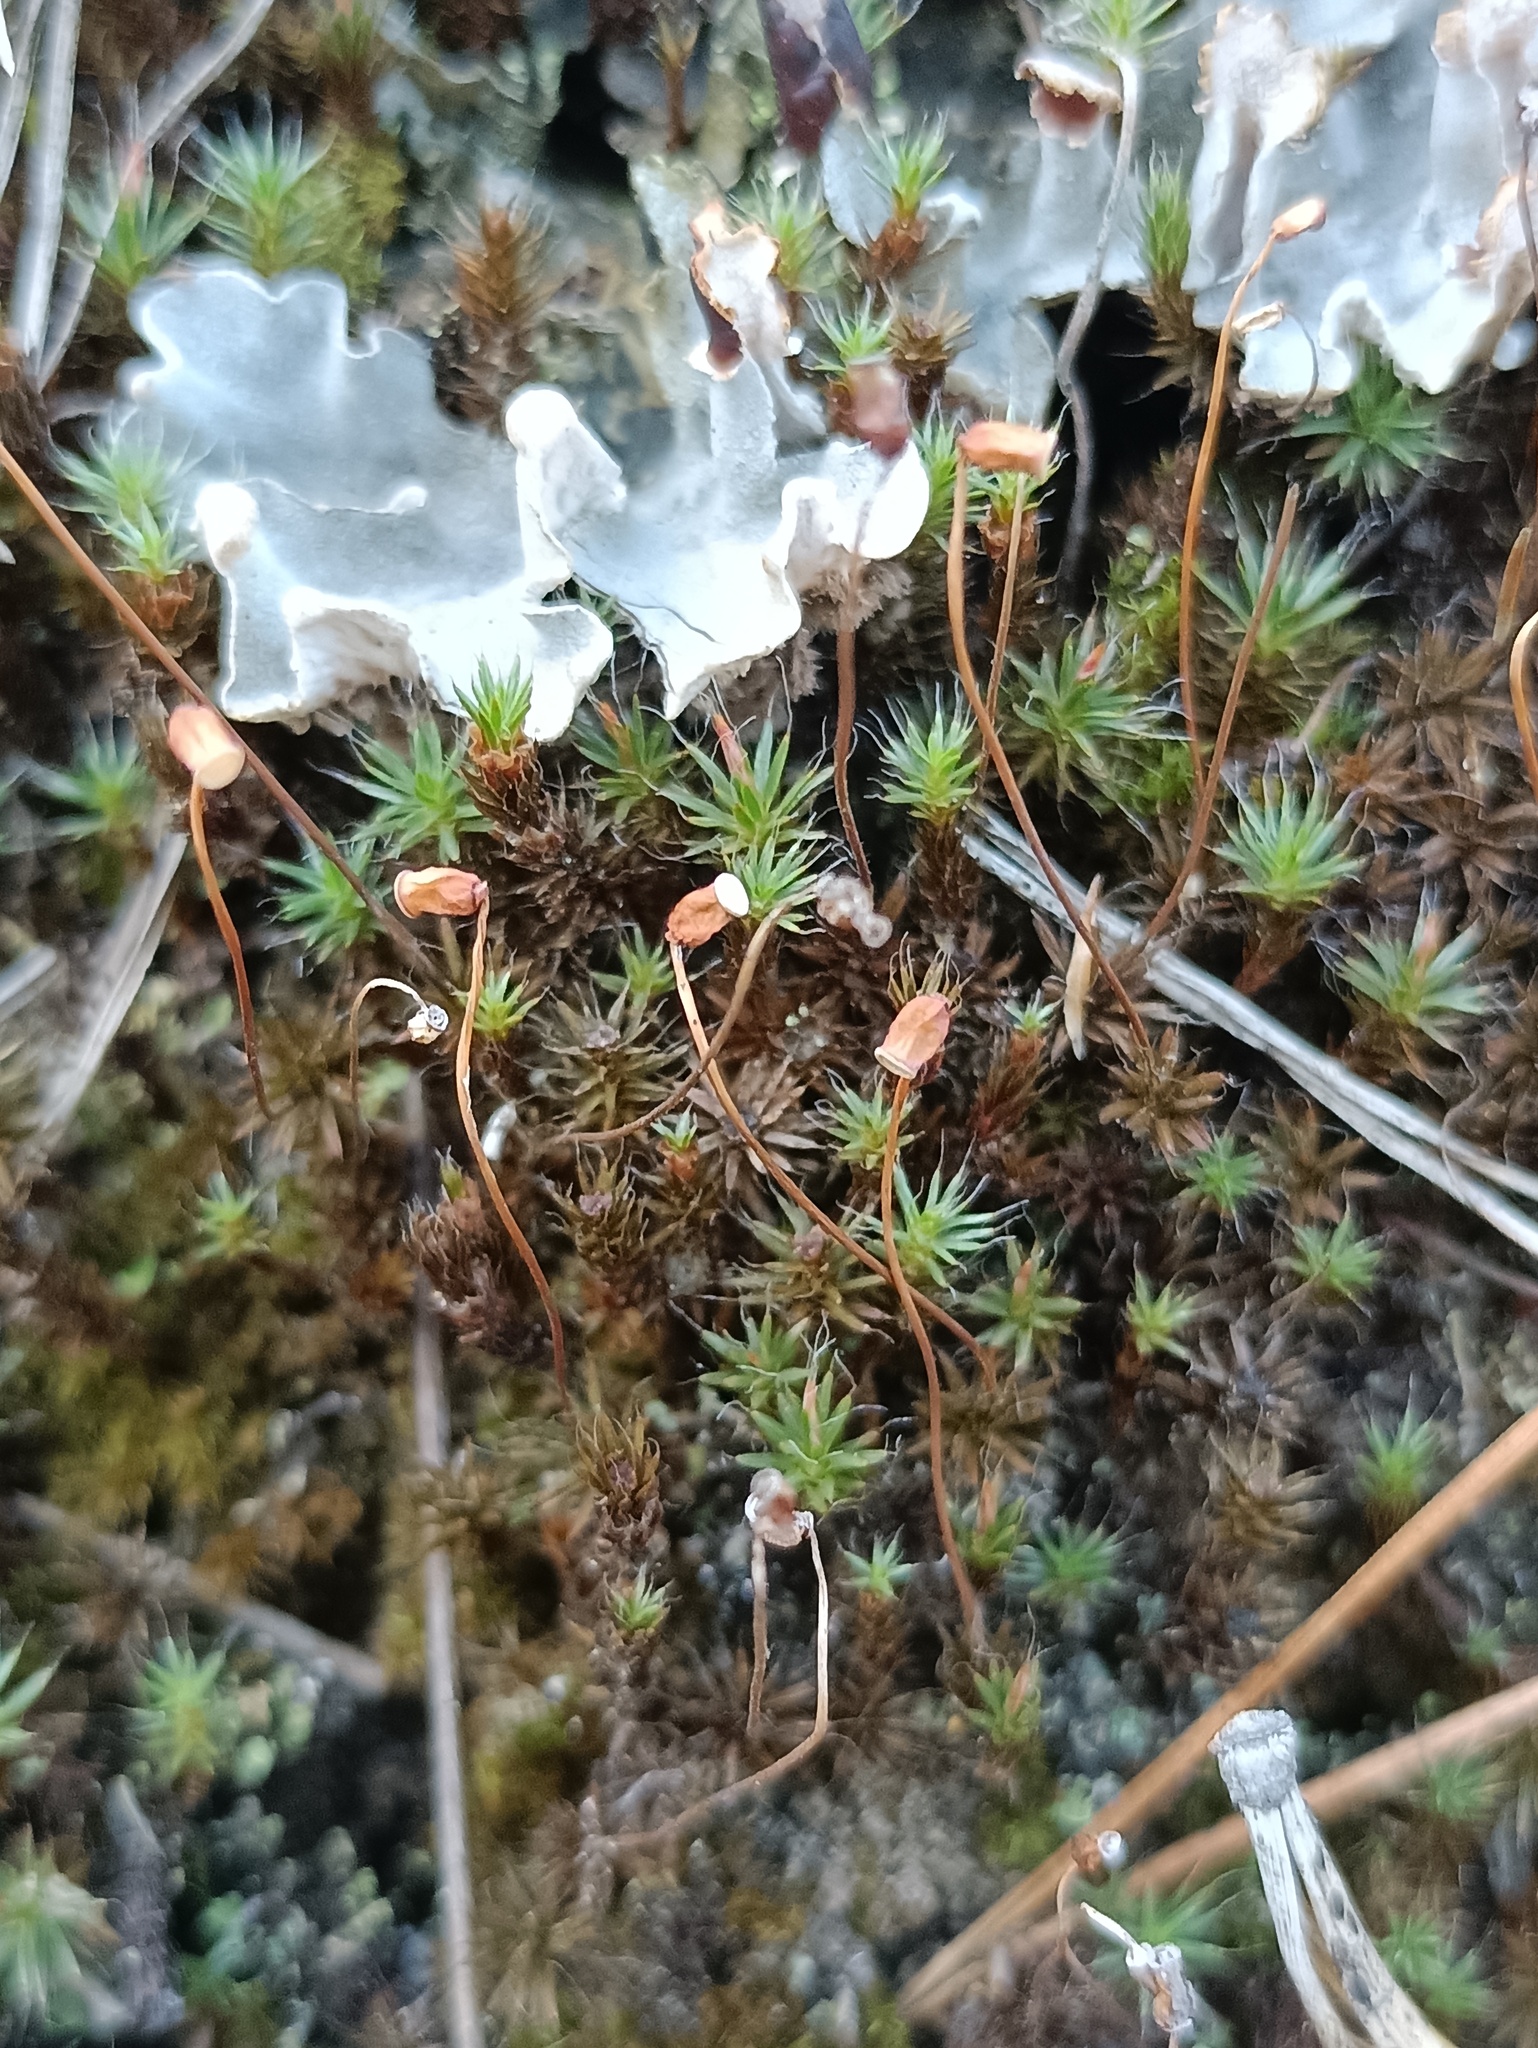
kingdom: Plantae
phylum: Bryophyta
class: Polytrichopsida
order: Polytrichales
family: Polytrichaceae
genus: Polytrichum
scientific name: Polytrichum piliferum
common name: Bristly haircap
